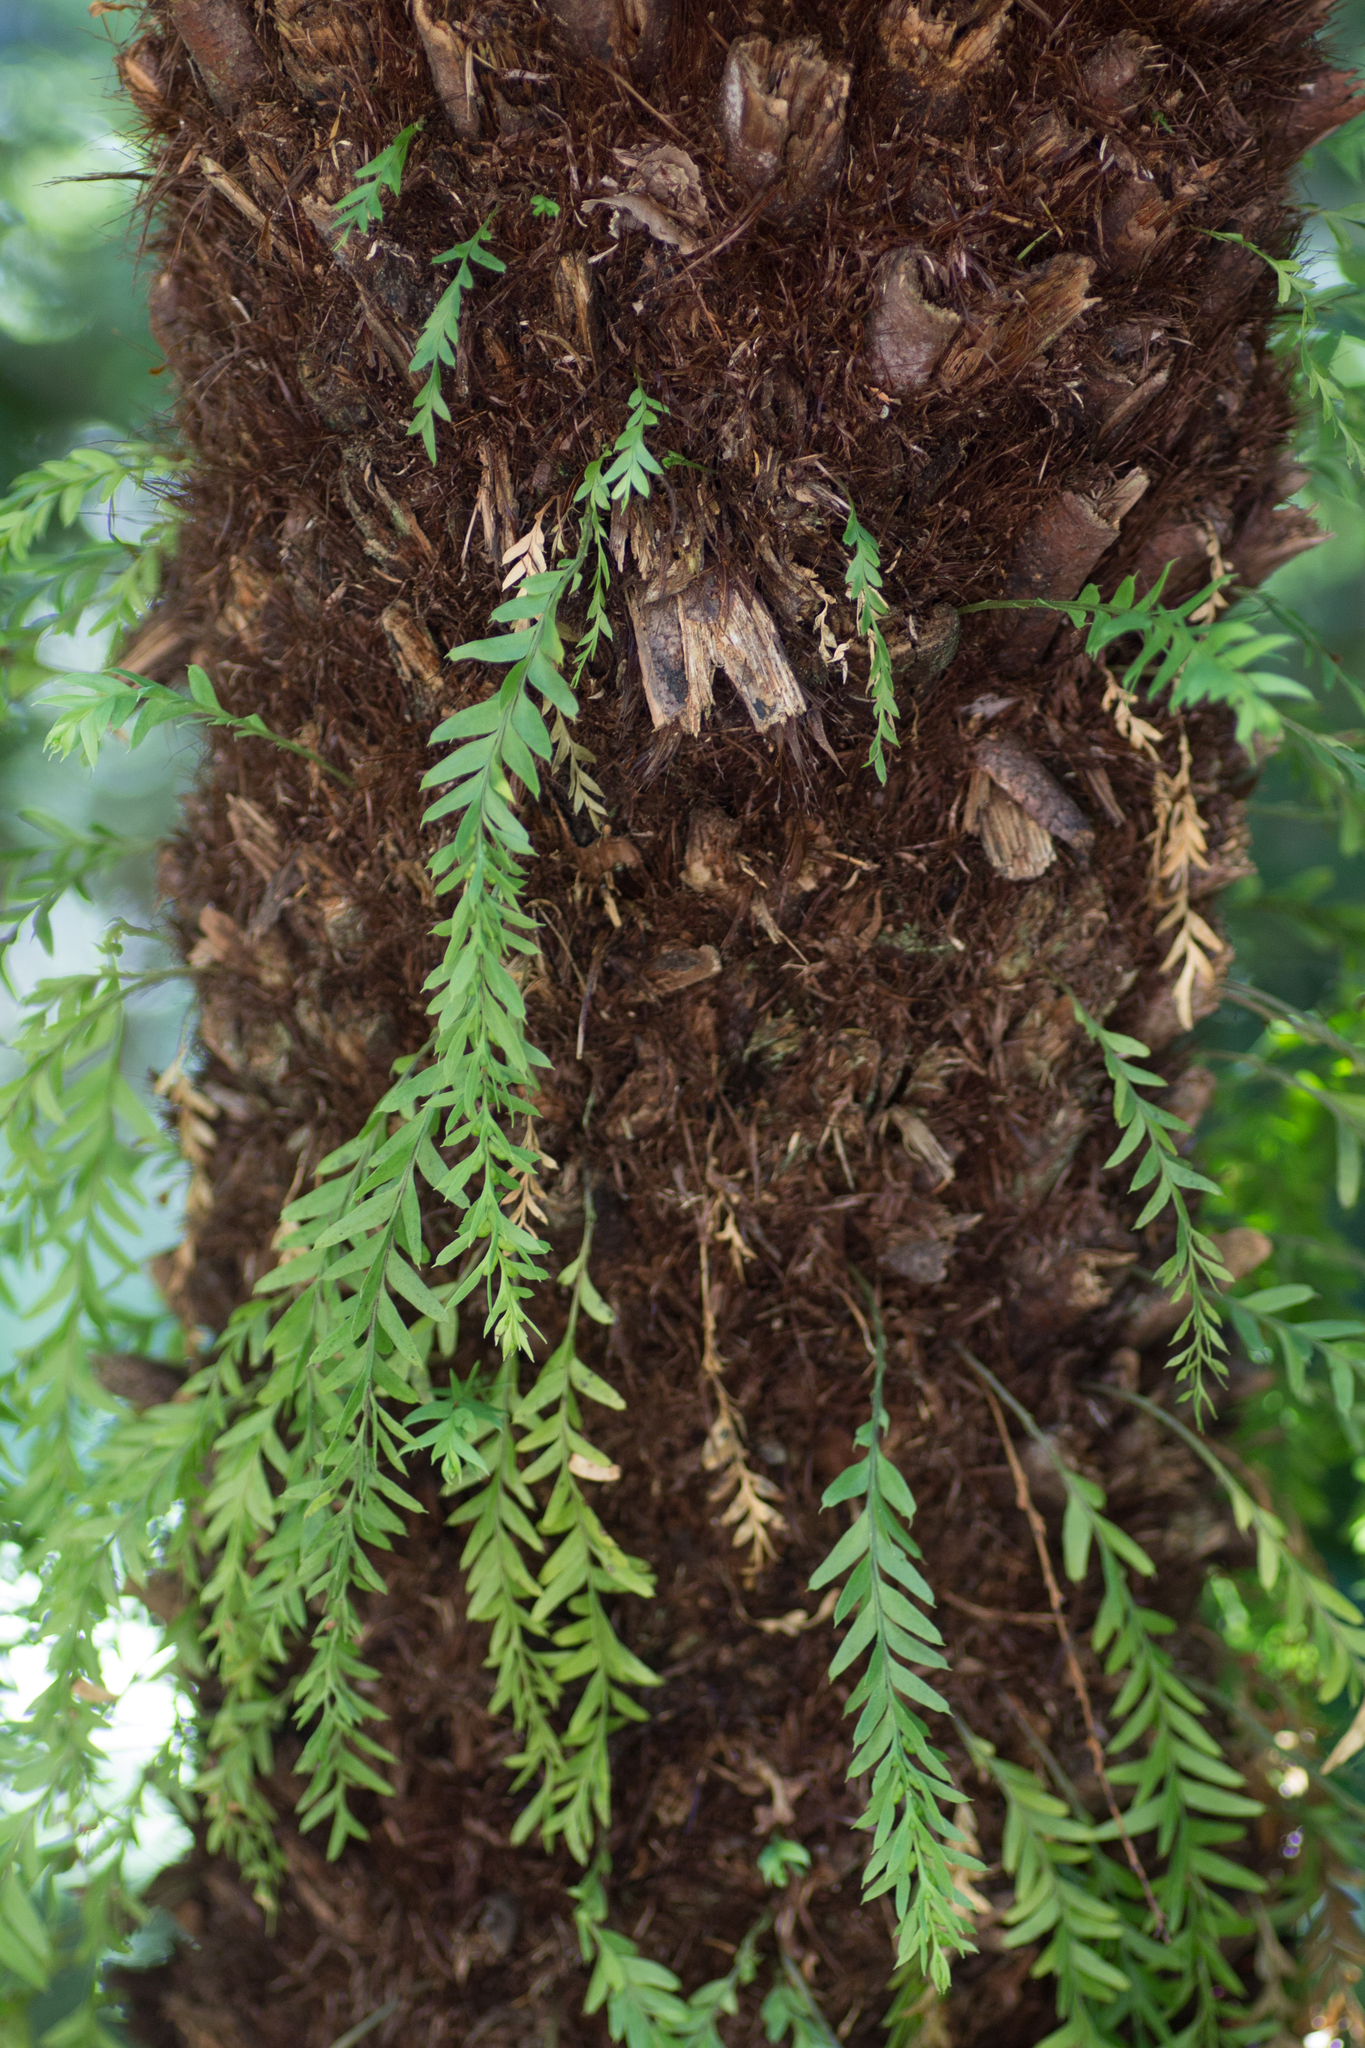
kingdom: Plantae
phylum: Tracheophyta
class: Polypodiopsida
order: Psilotales
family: Psilotaceae
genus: Tmesipteris
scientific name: Tmesipteris elongata
